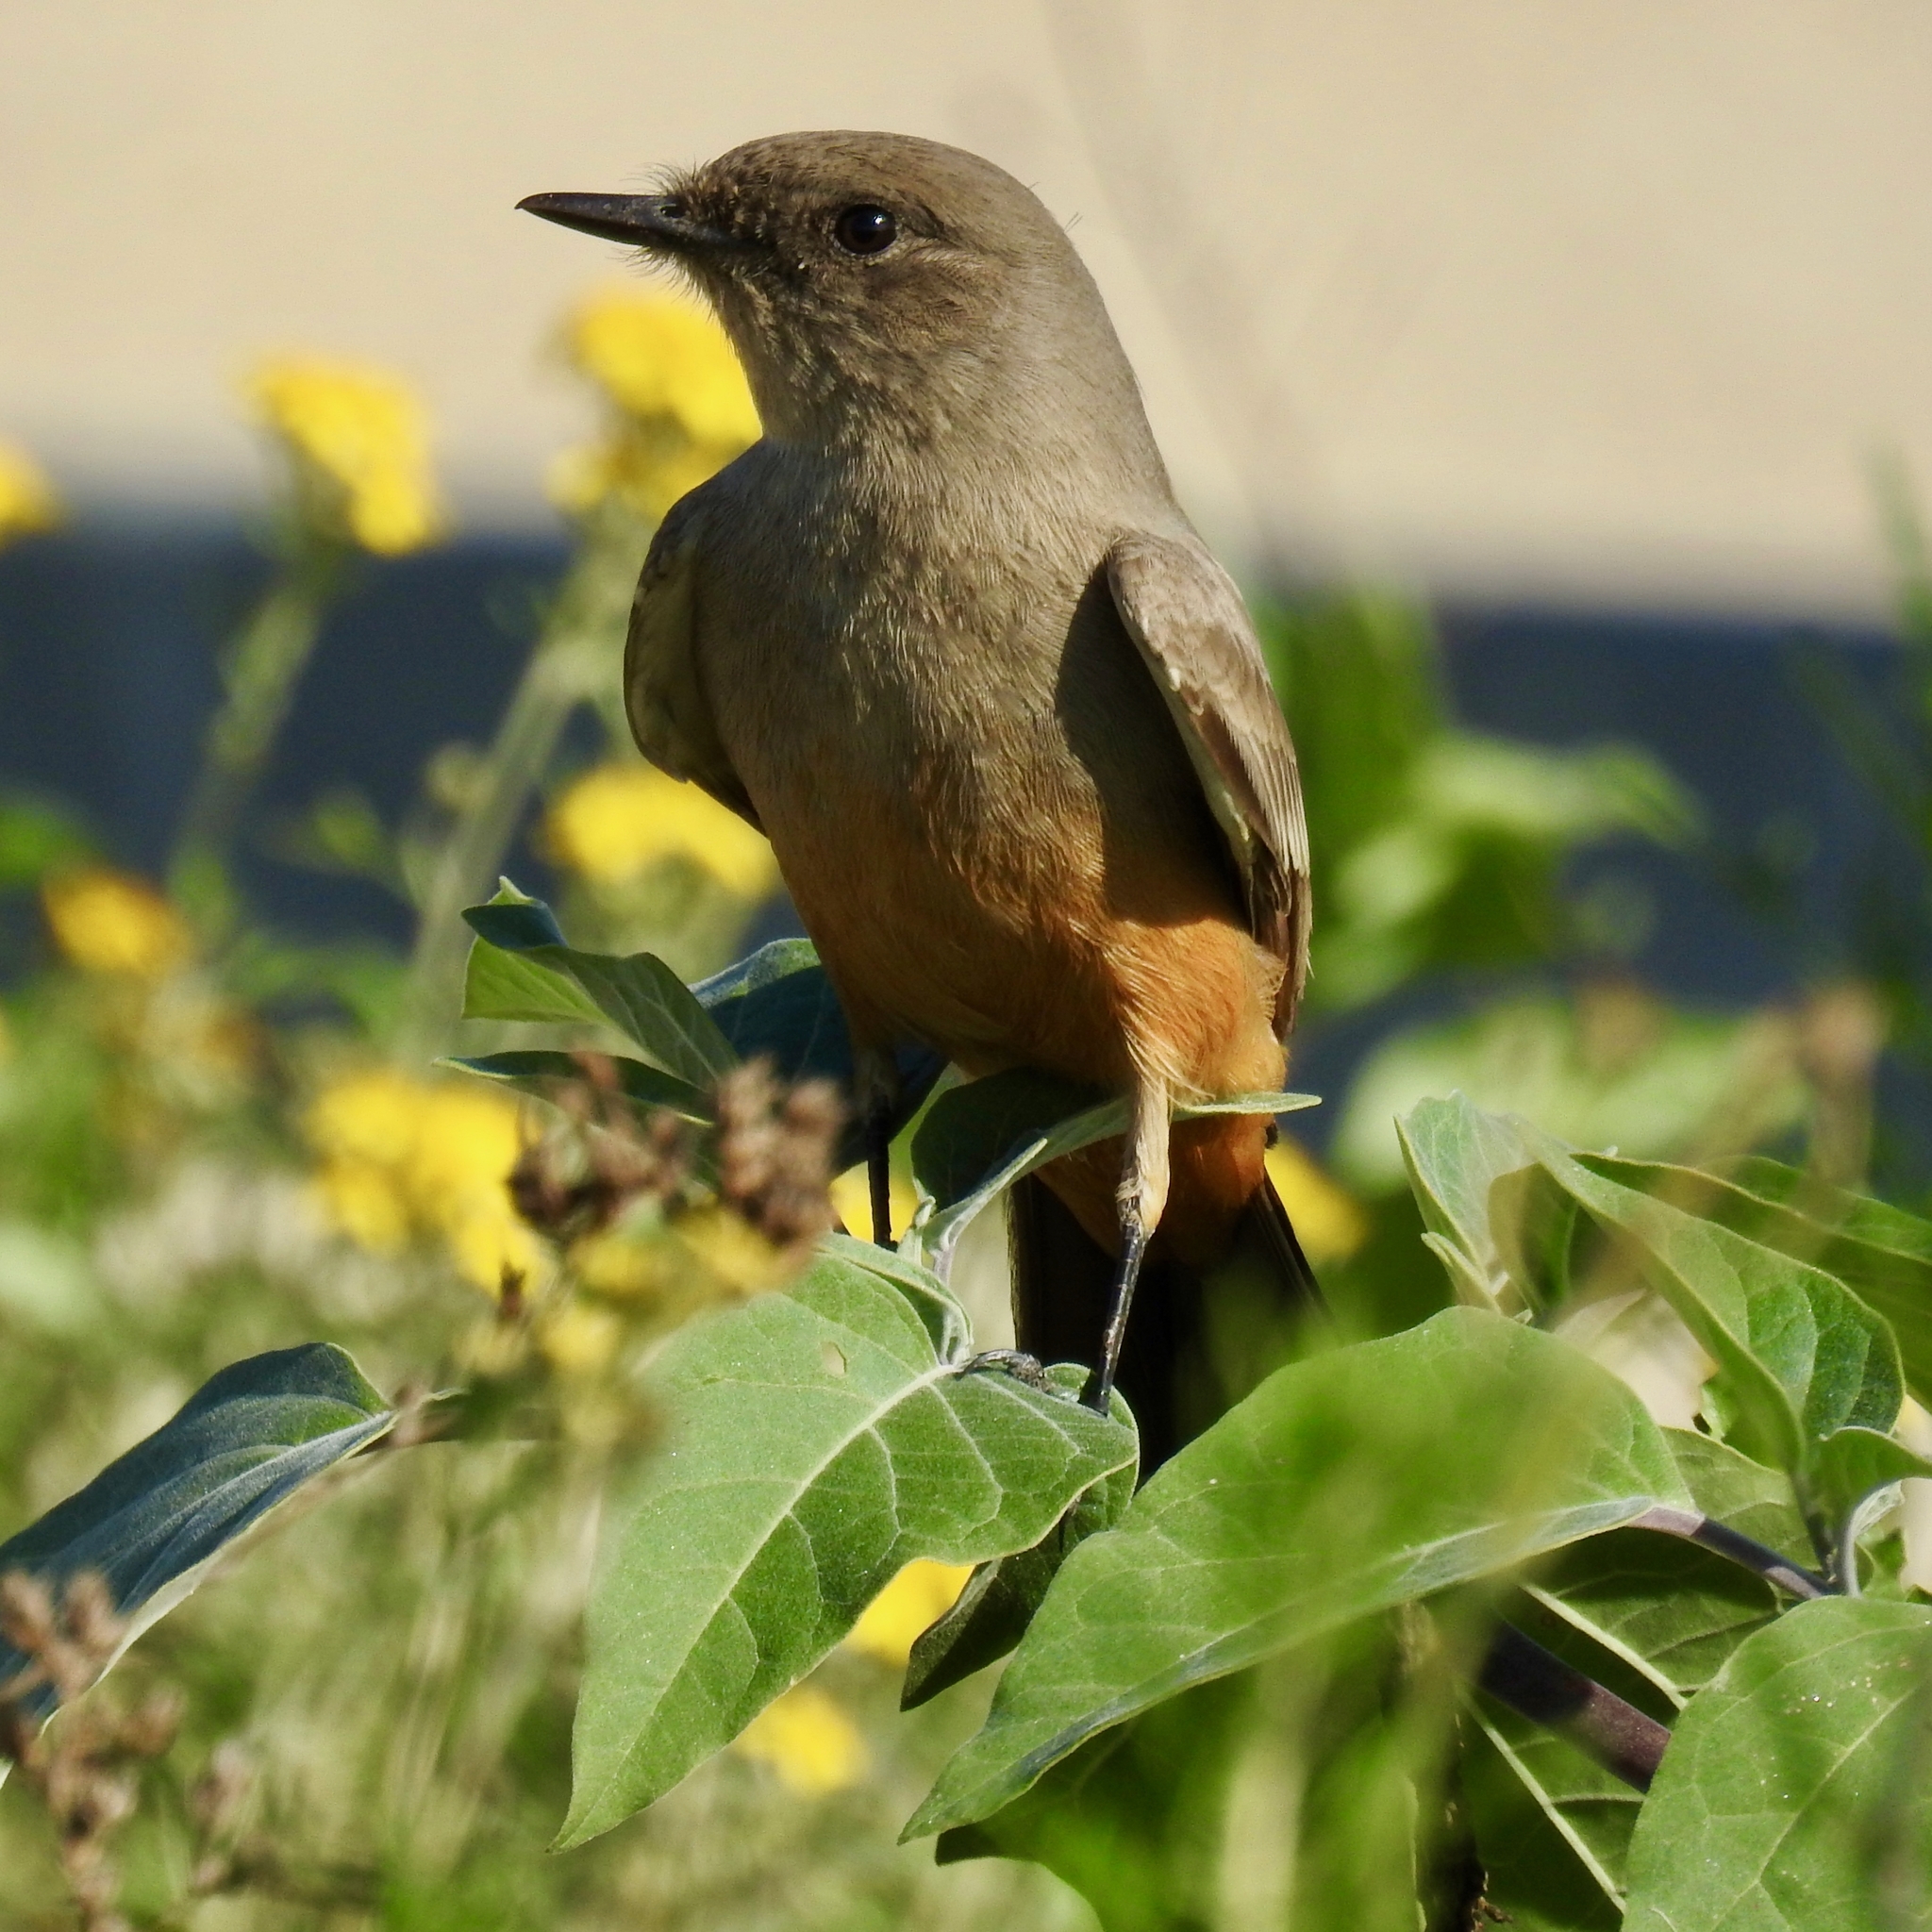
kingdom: Animalia
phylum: Chordata
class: Aves
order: Passeriformes
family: Tyrannidae
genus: Sayornis
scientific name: Sayornis saya
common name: Say's phoebe
